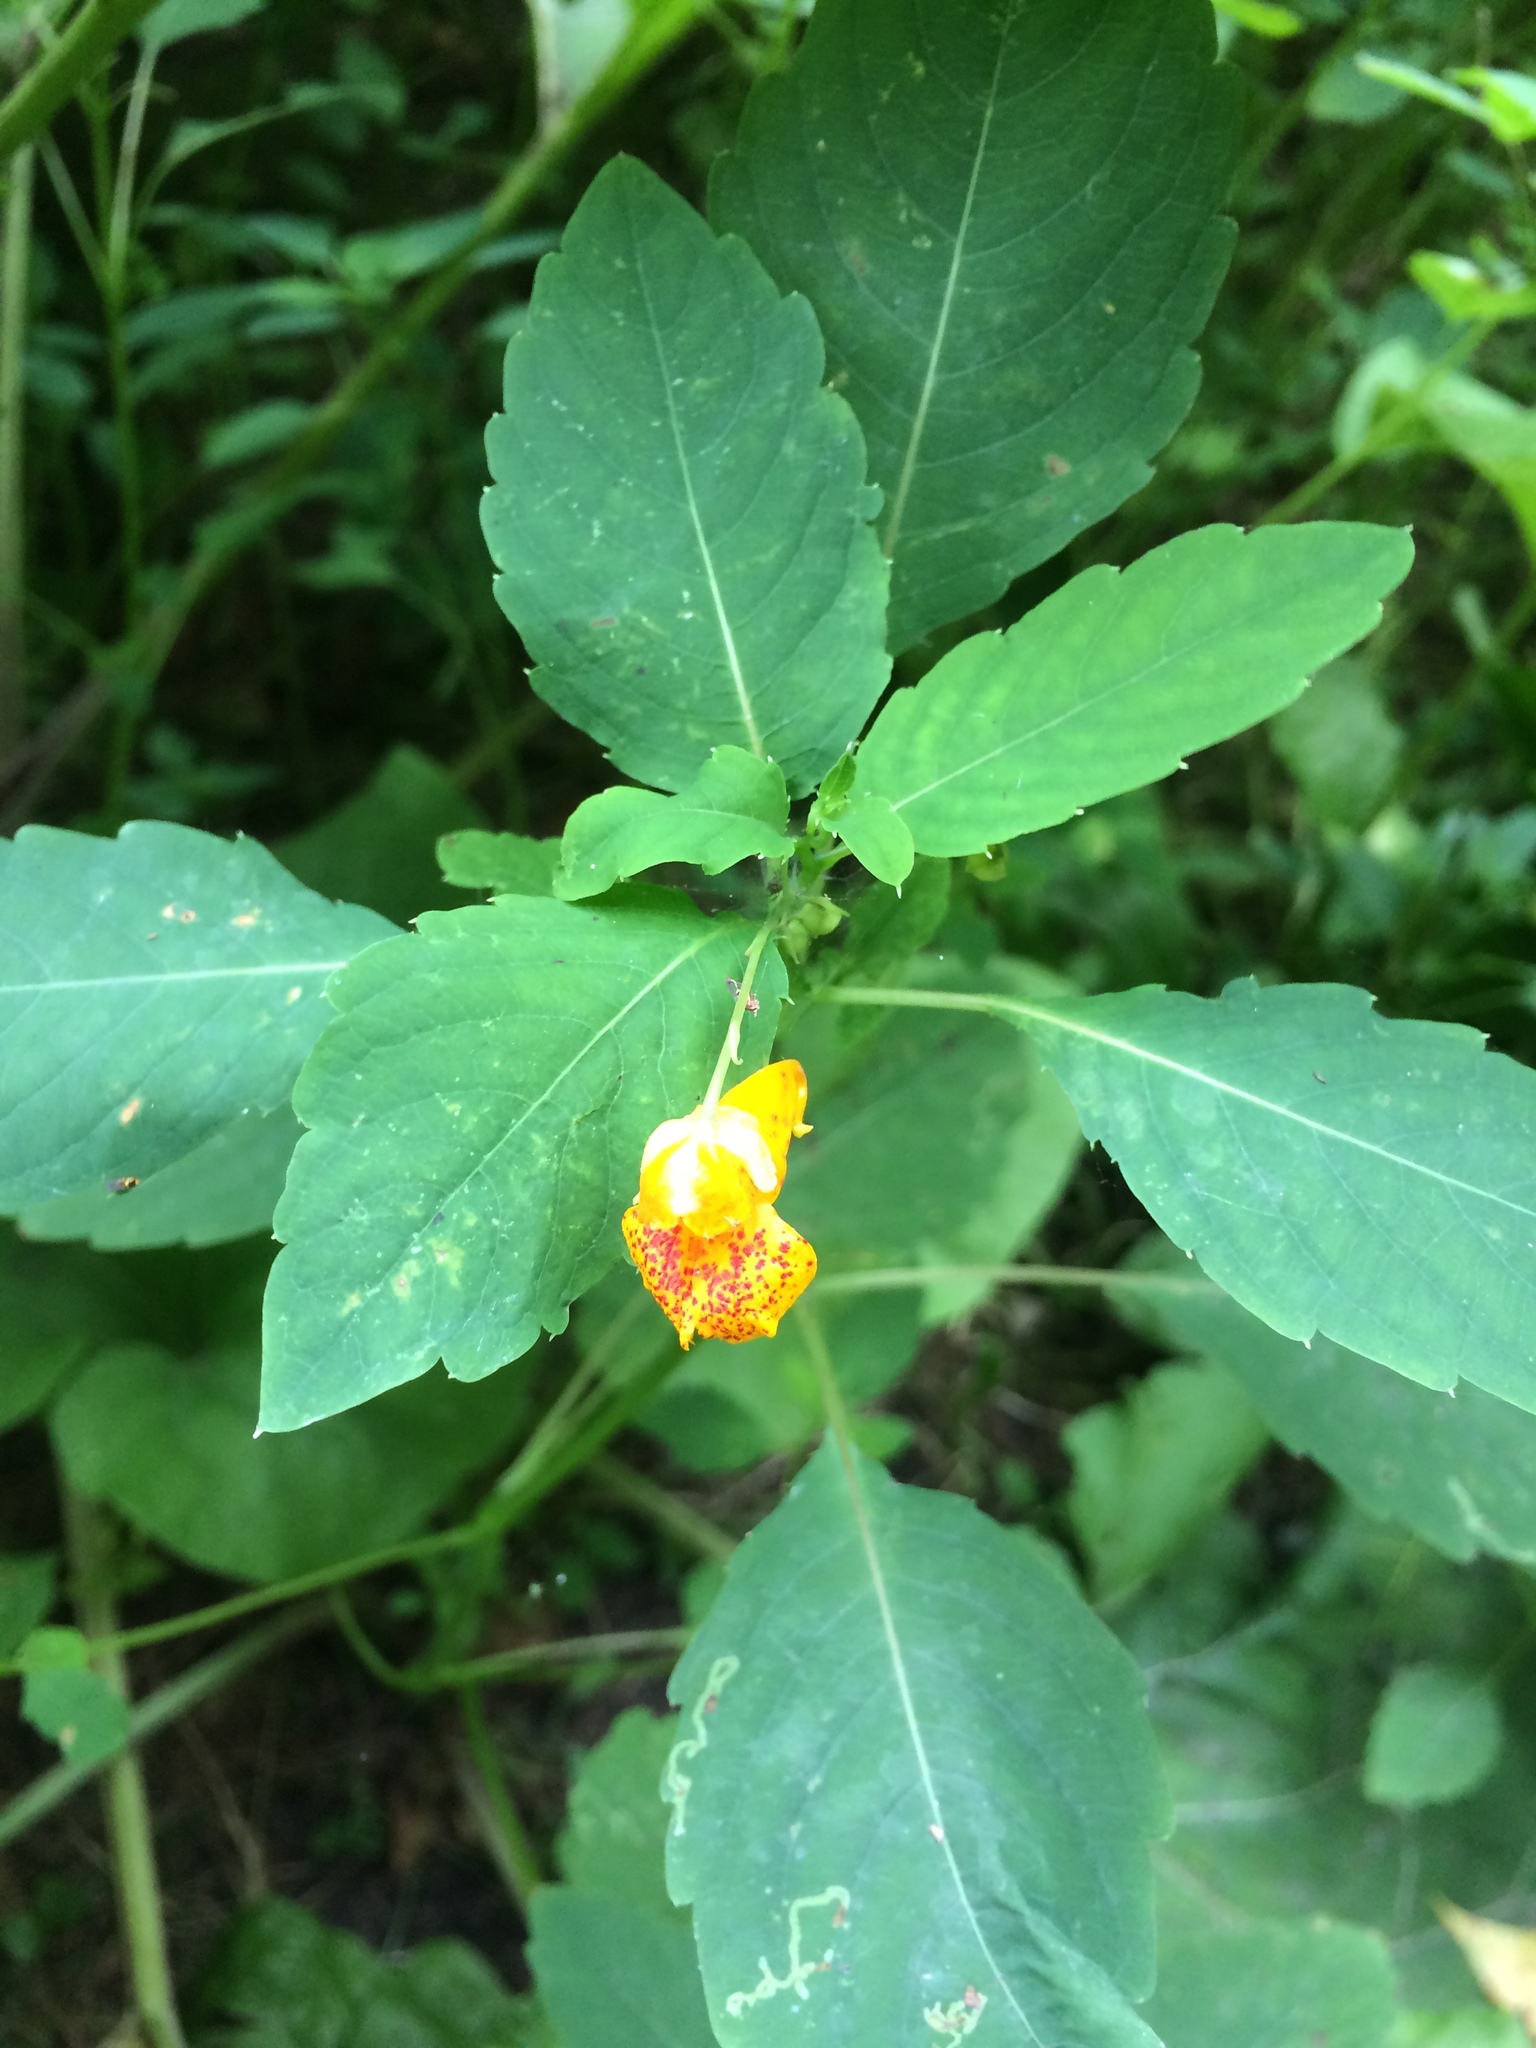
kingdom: Plantae
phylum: Tracheophyta
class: Magnoliopsida
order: Ericales
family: Balsaminaceae
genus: Impatiens
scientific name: Impatiens capensis
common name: Orange balsam
